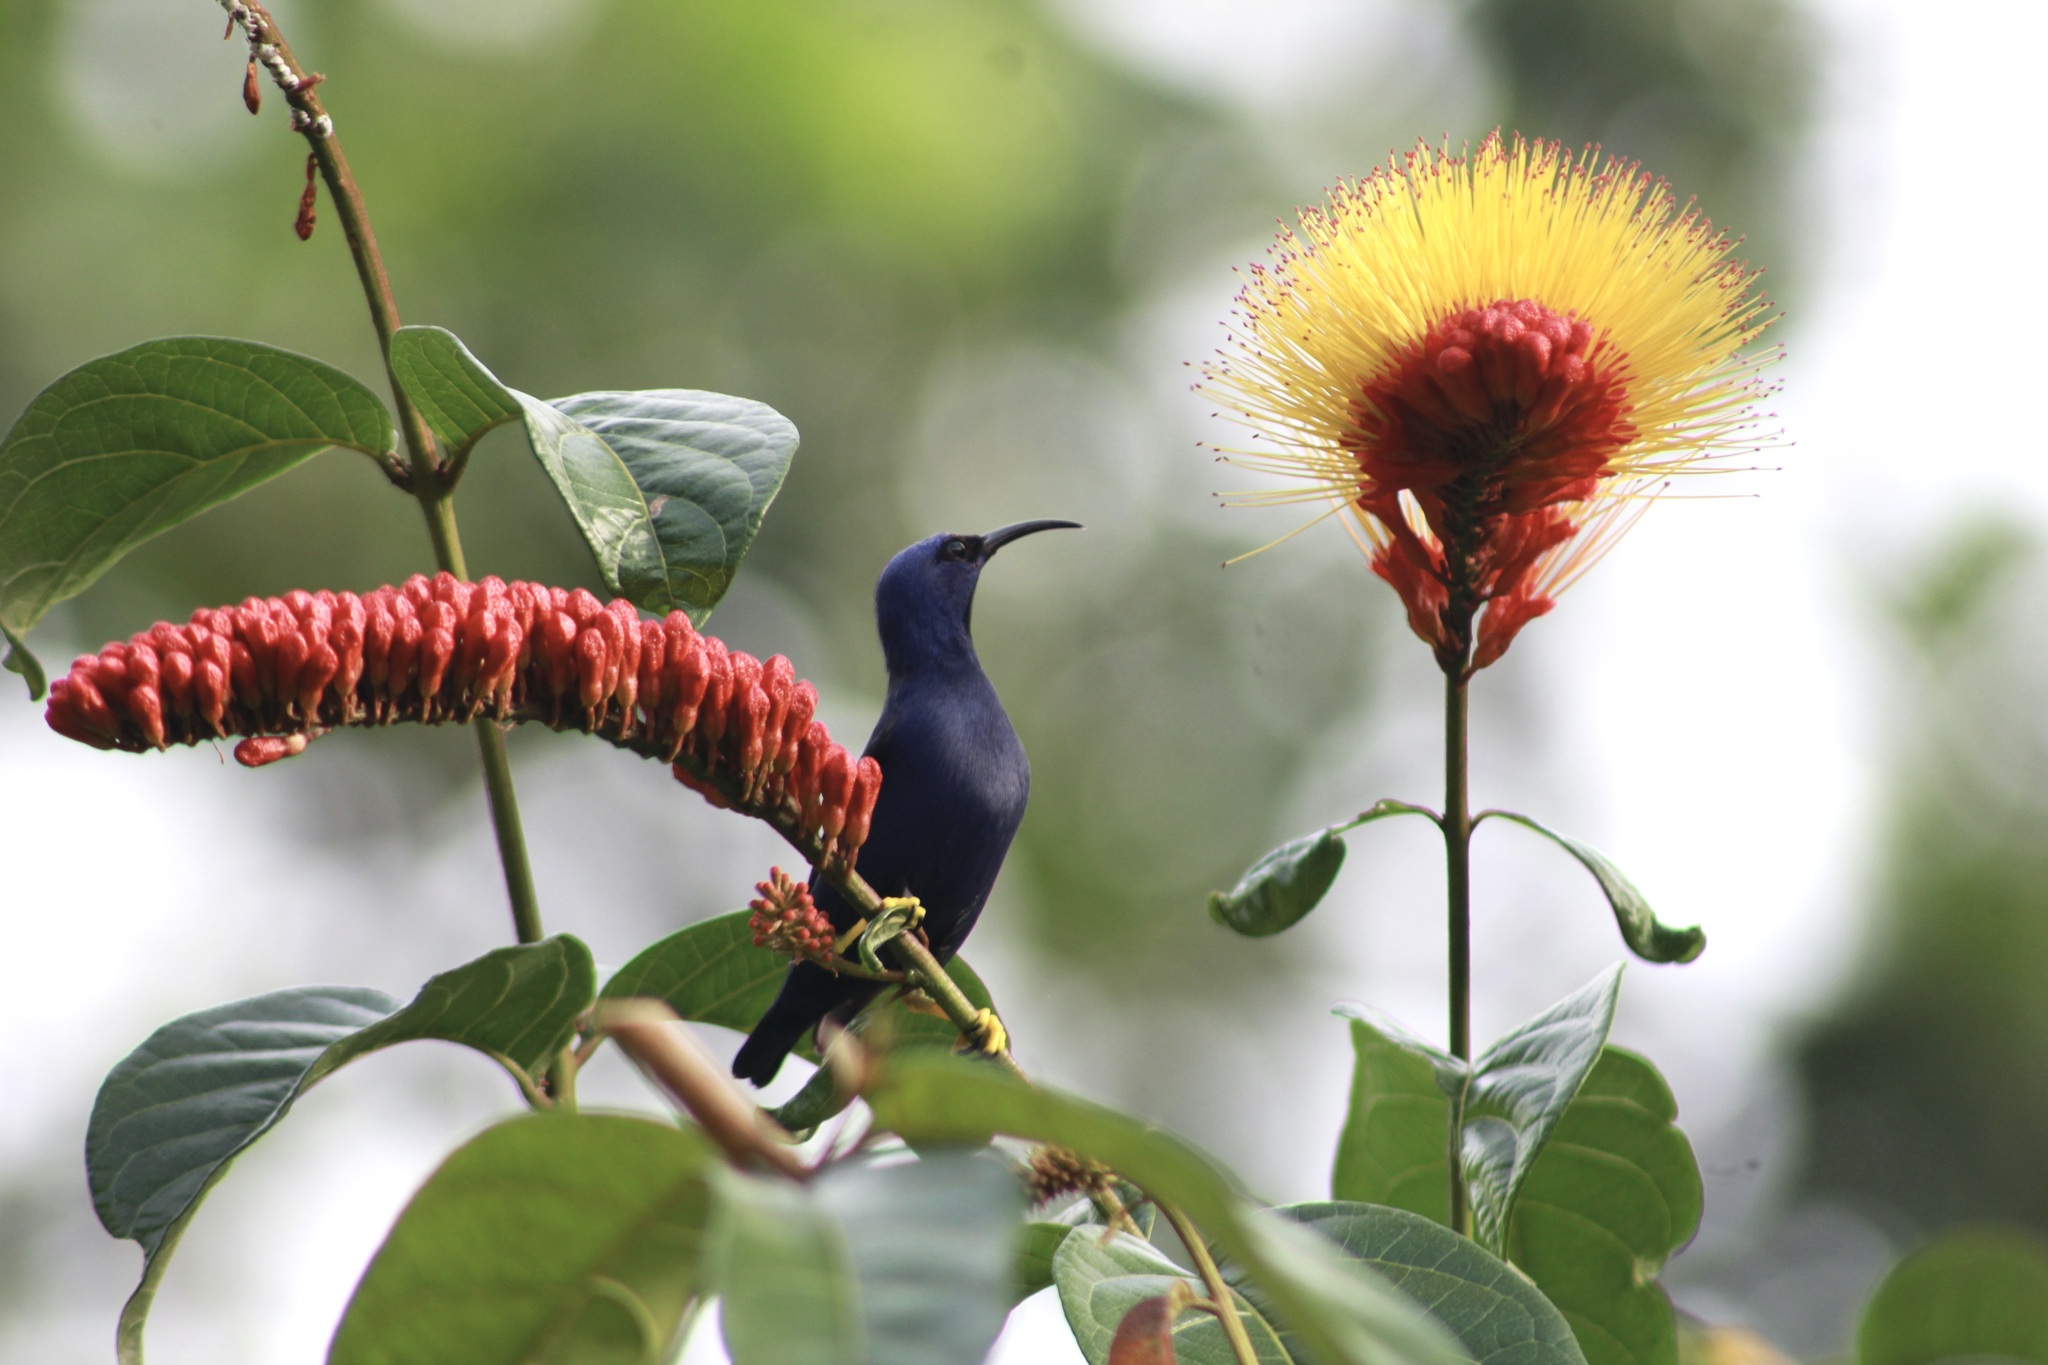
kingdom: Animalia
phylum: Chordata
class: Aves
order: Passeriformes
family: Thraupidae
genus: Cyanerpes
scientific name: Cyanerpes caeruleus
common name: Purple honeycreeper
